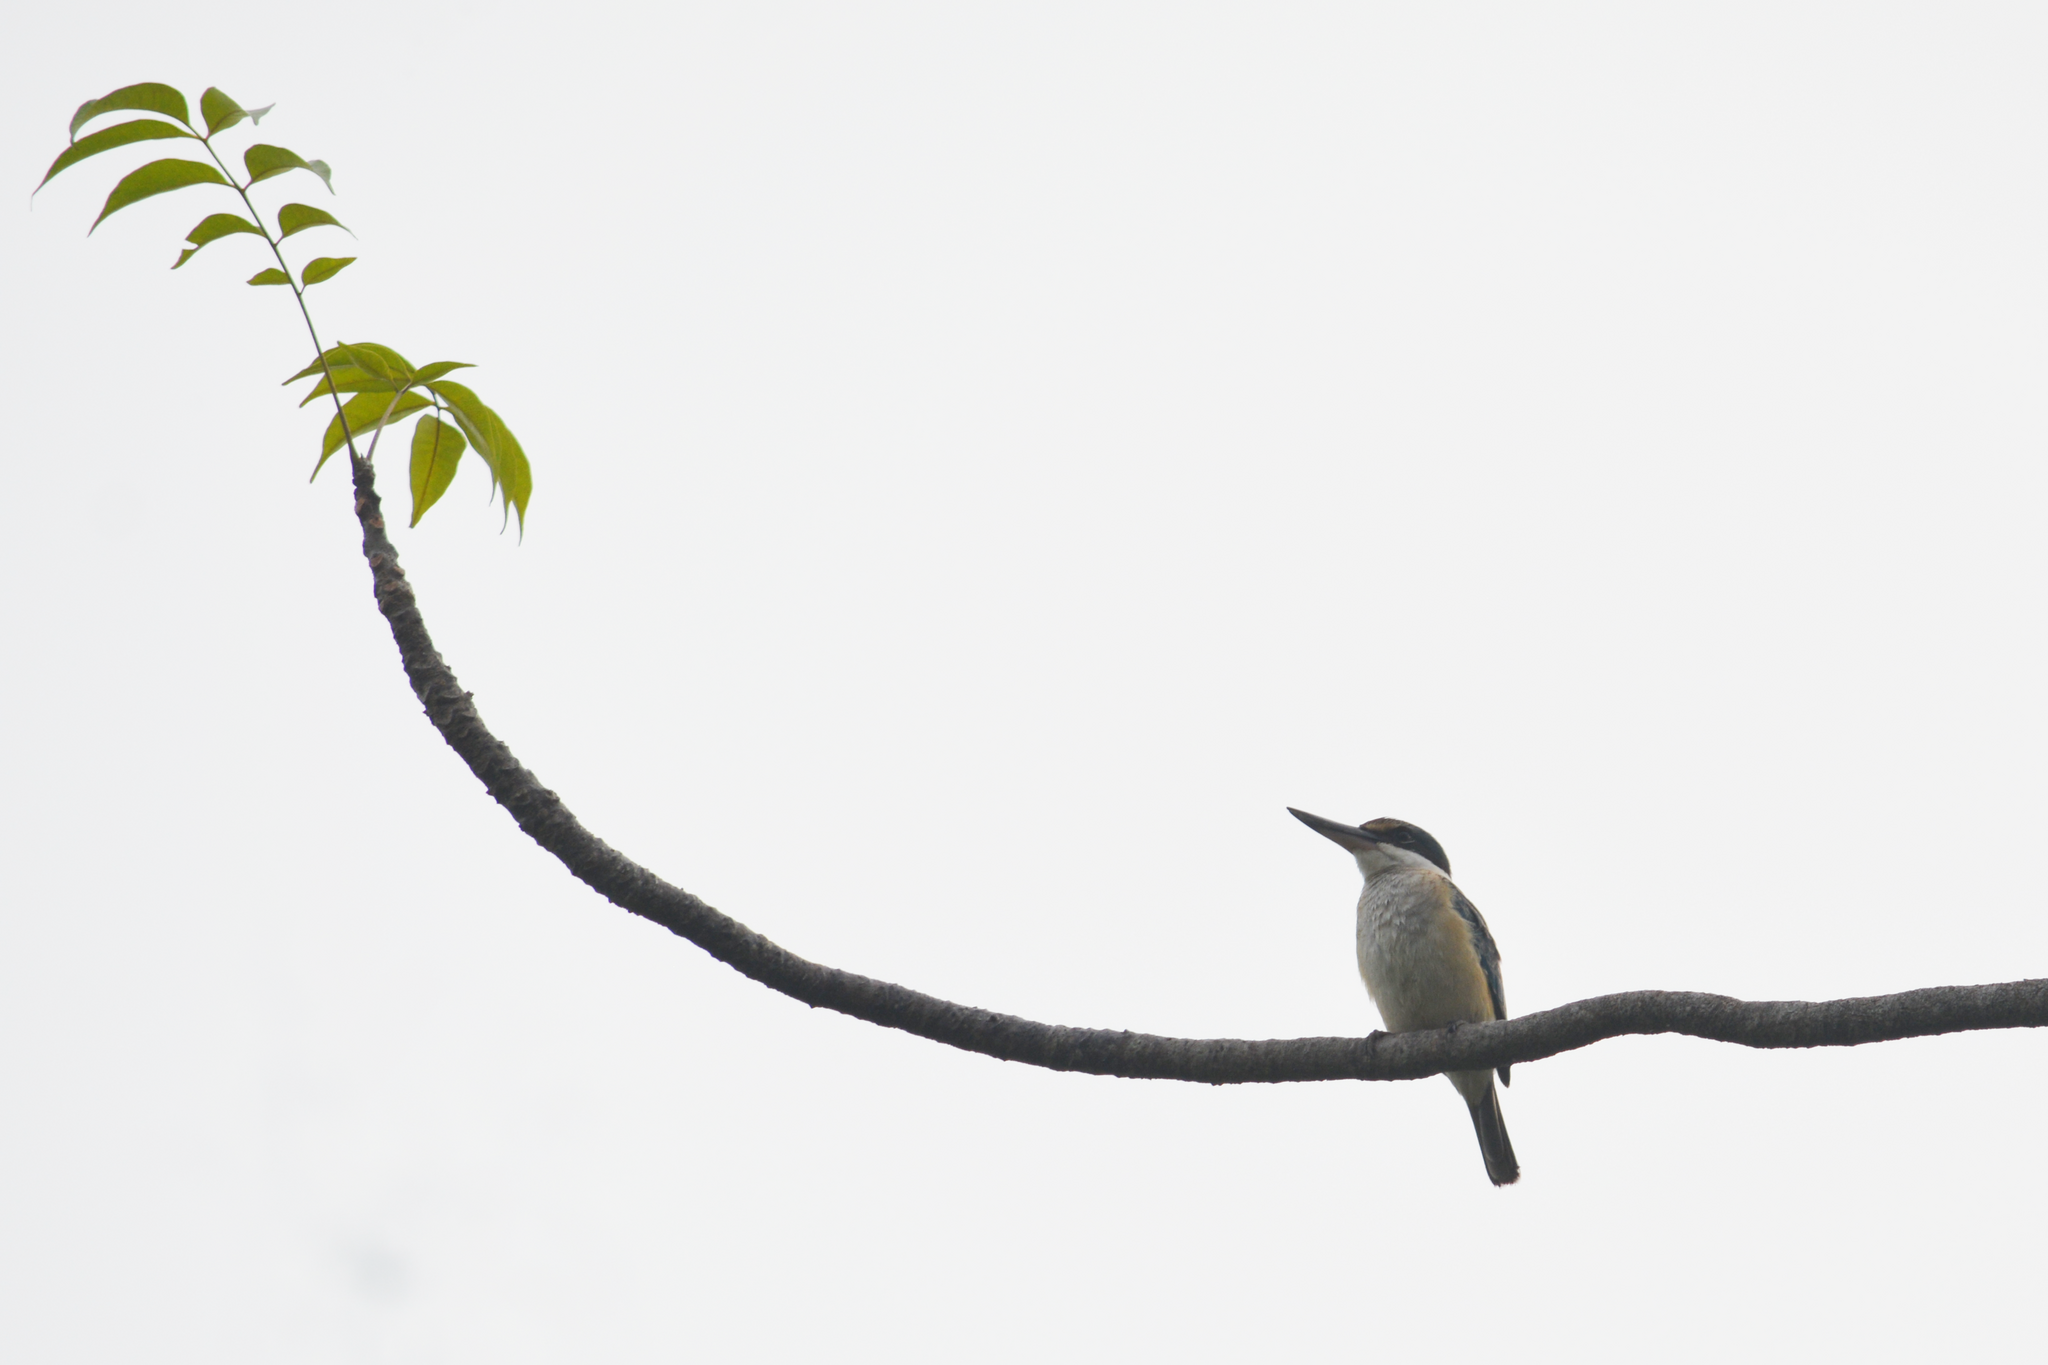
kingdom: Animalia
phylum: Chordata
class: Aves
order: Coraciiformes
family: Alcedinidae
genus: Todiramphus
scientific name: Todiramphus chloris
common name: Collared kingfisher
